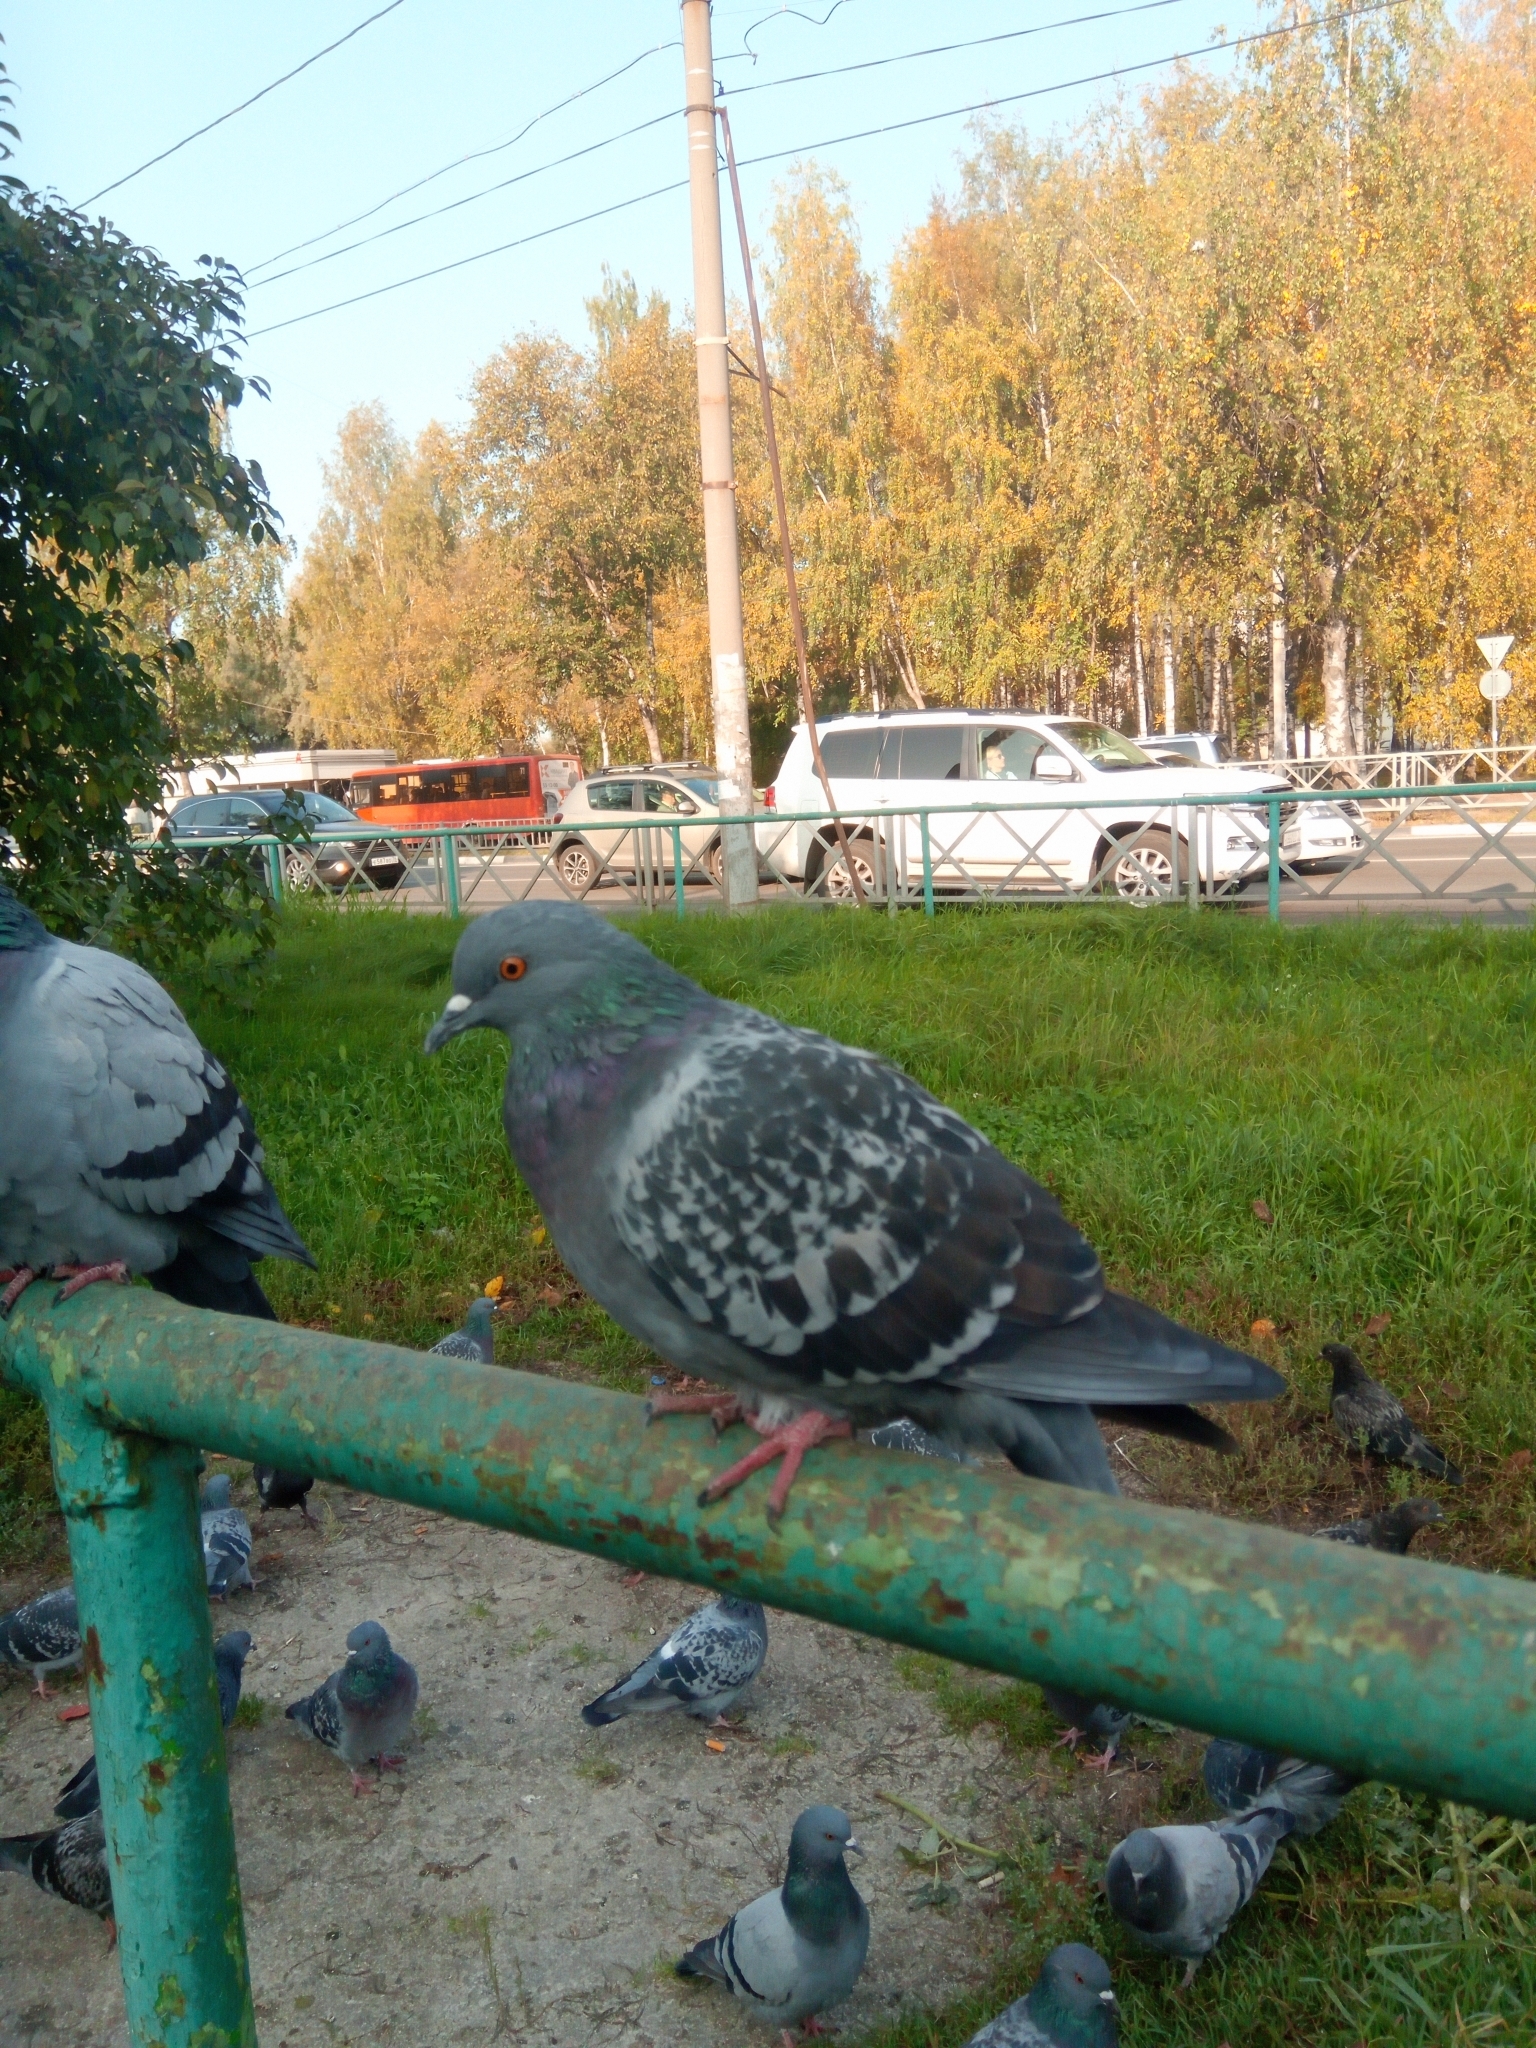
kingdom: Animalia
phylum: Chordata
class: Aves
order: Columbiformes
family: Columbidae
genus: Columba
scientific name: Columba livia
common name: Rock pigeon
